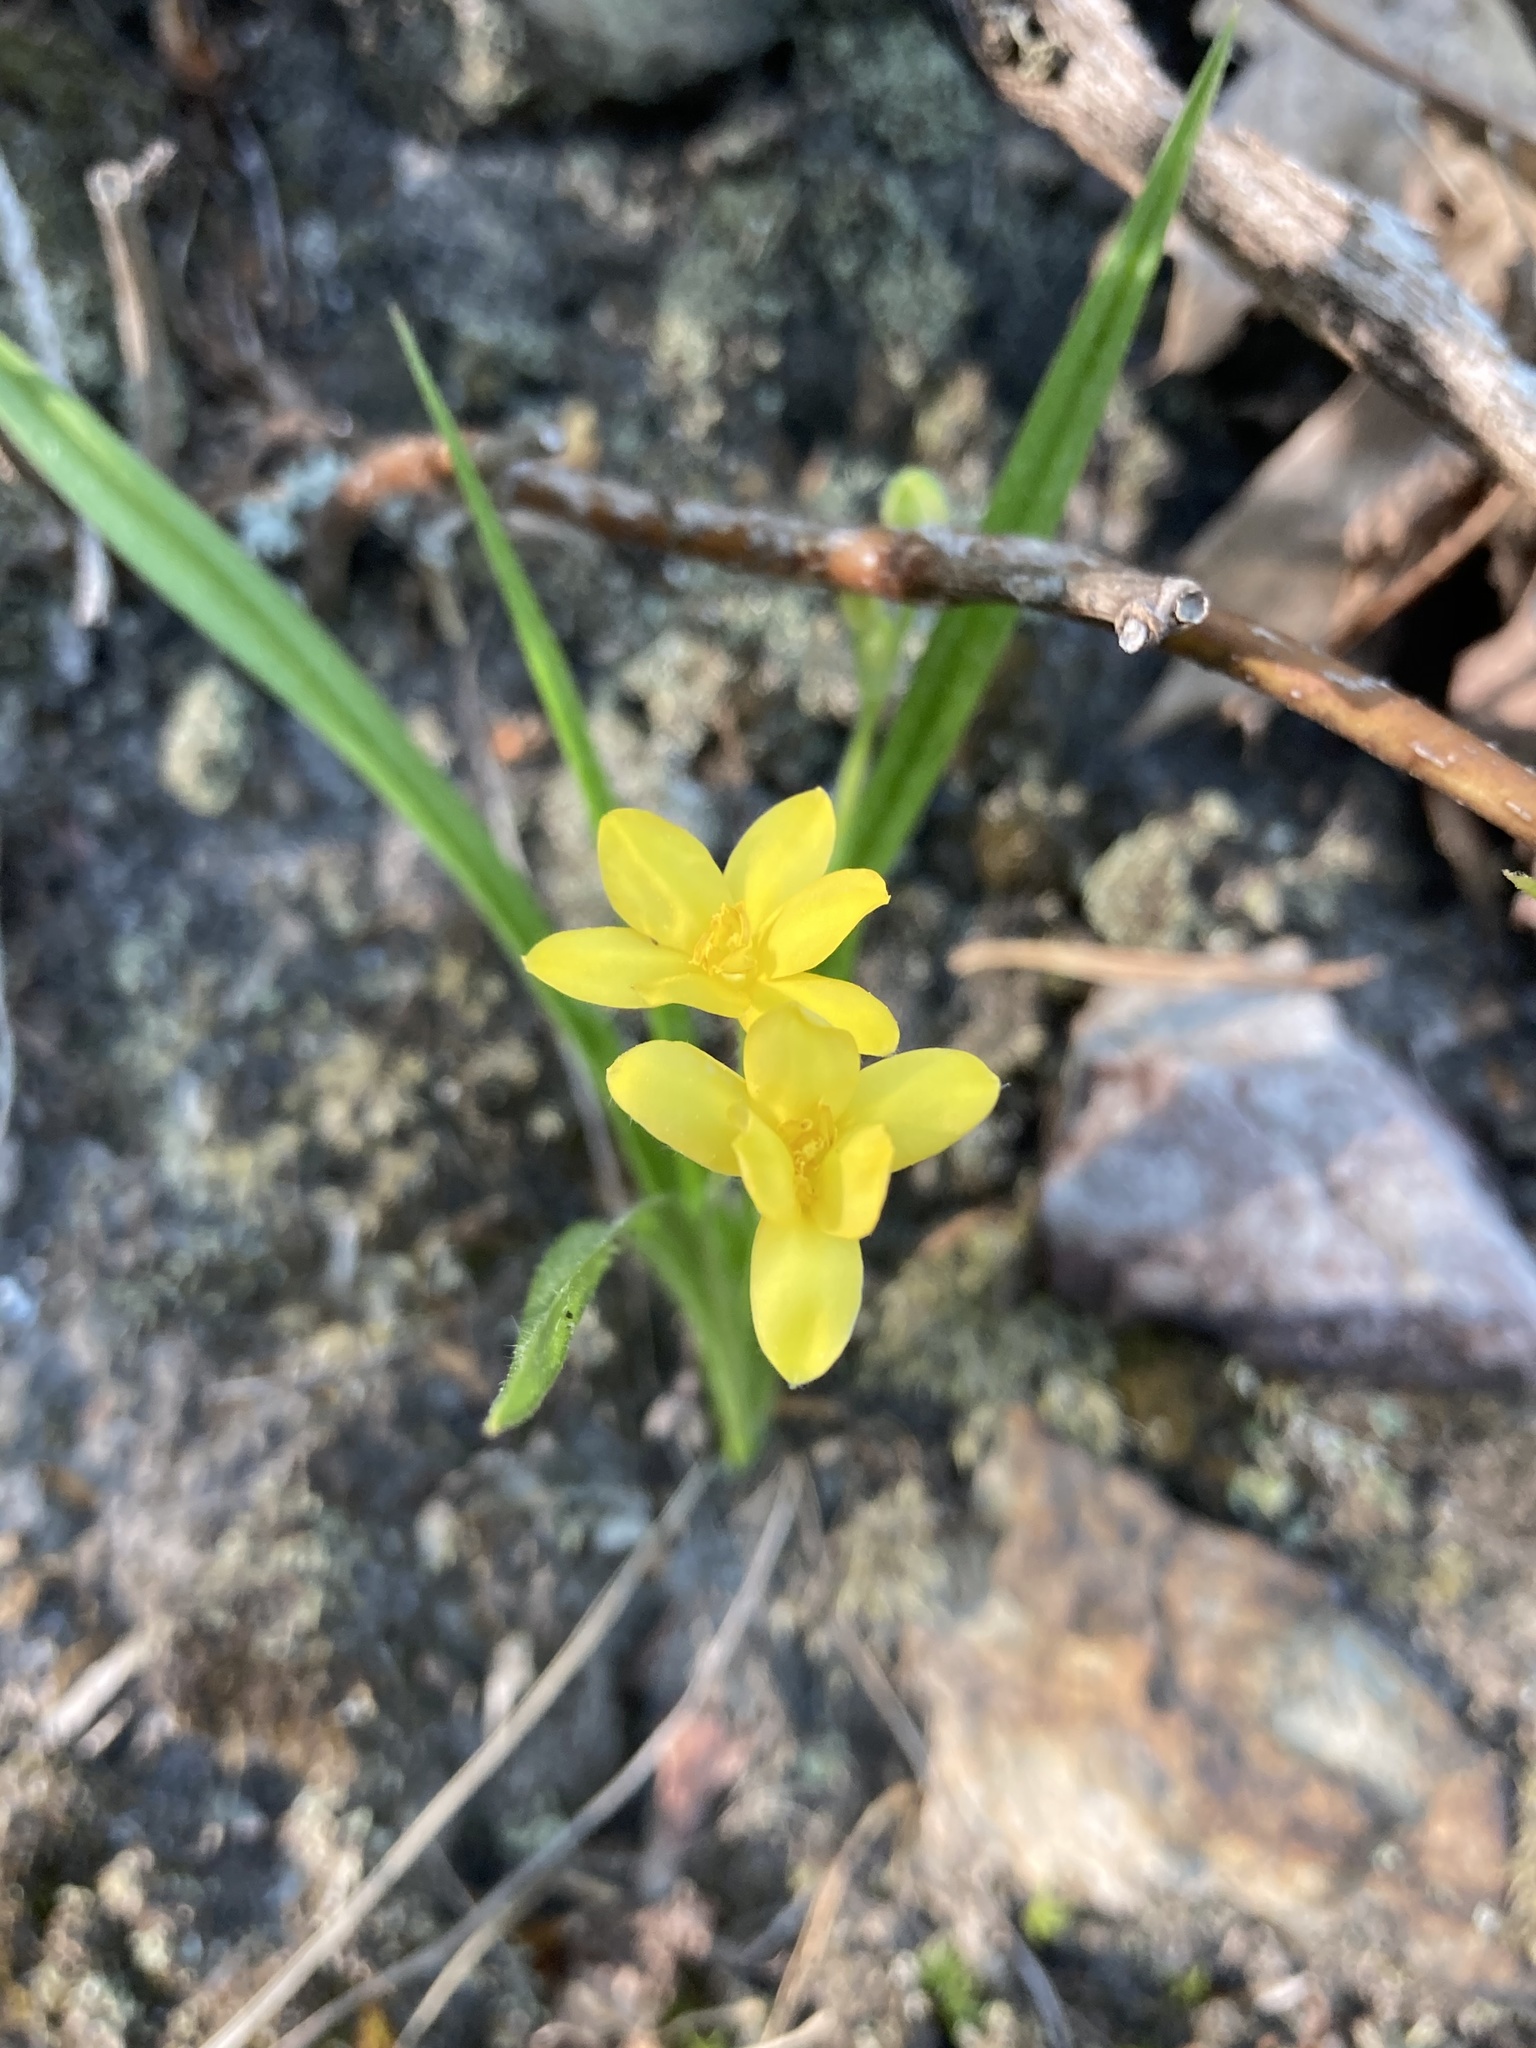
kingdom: Plantae
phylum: Tracheophyta
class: Liliopsida
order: Asparagales
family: Hypoxidaceae
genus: Hypoxis
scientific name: Hypoxis hirsuta
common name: Common goldstar
